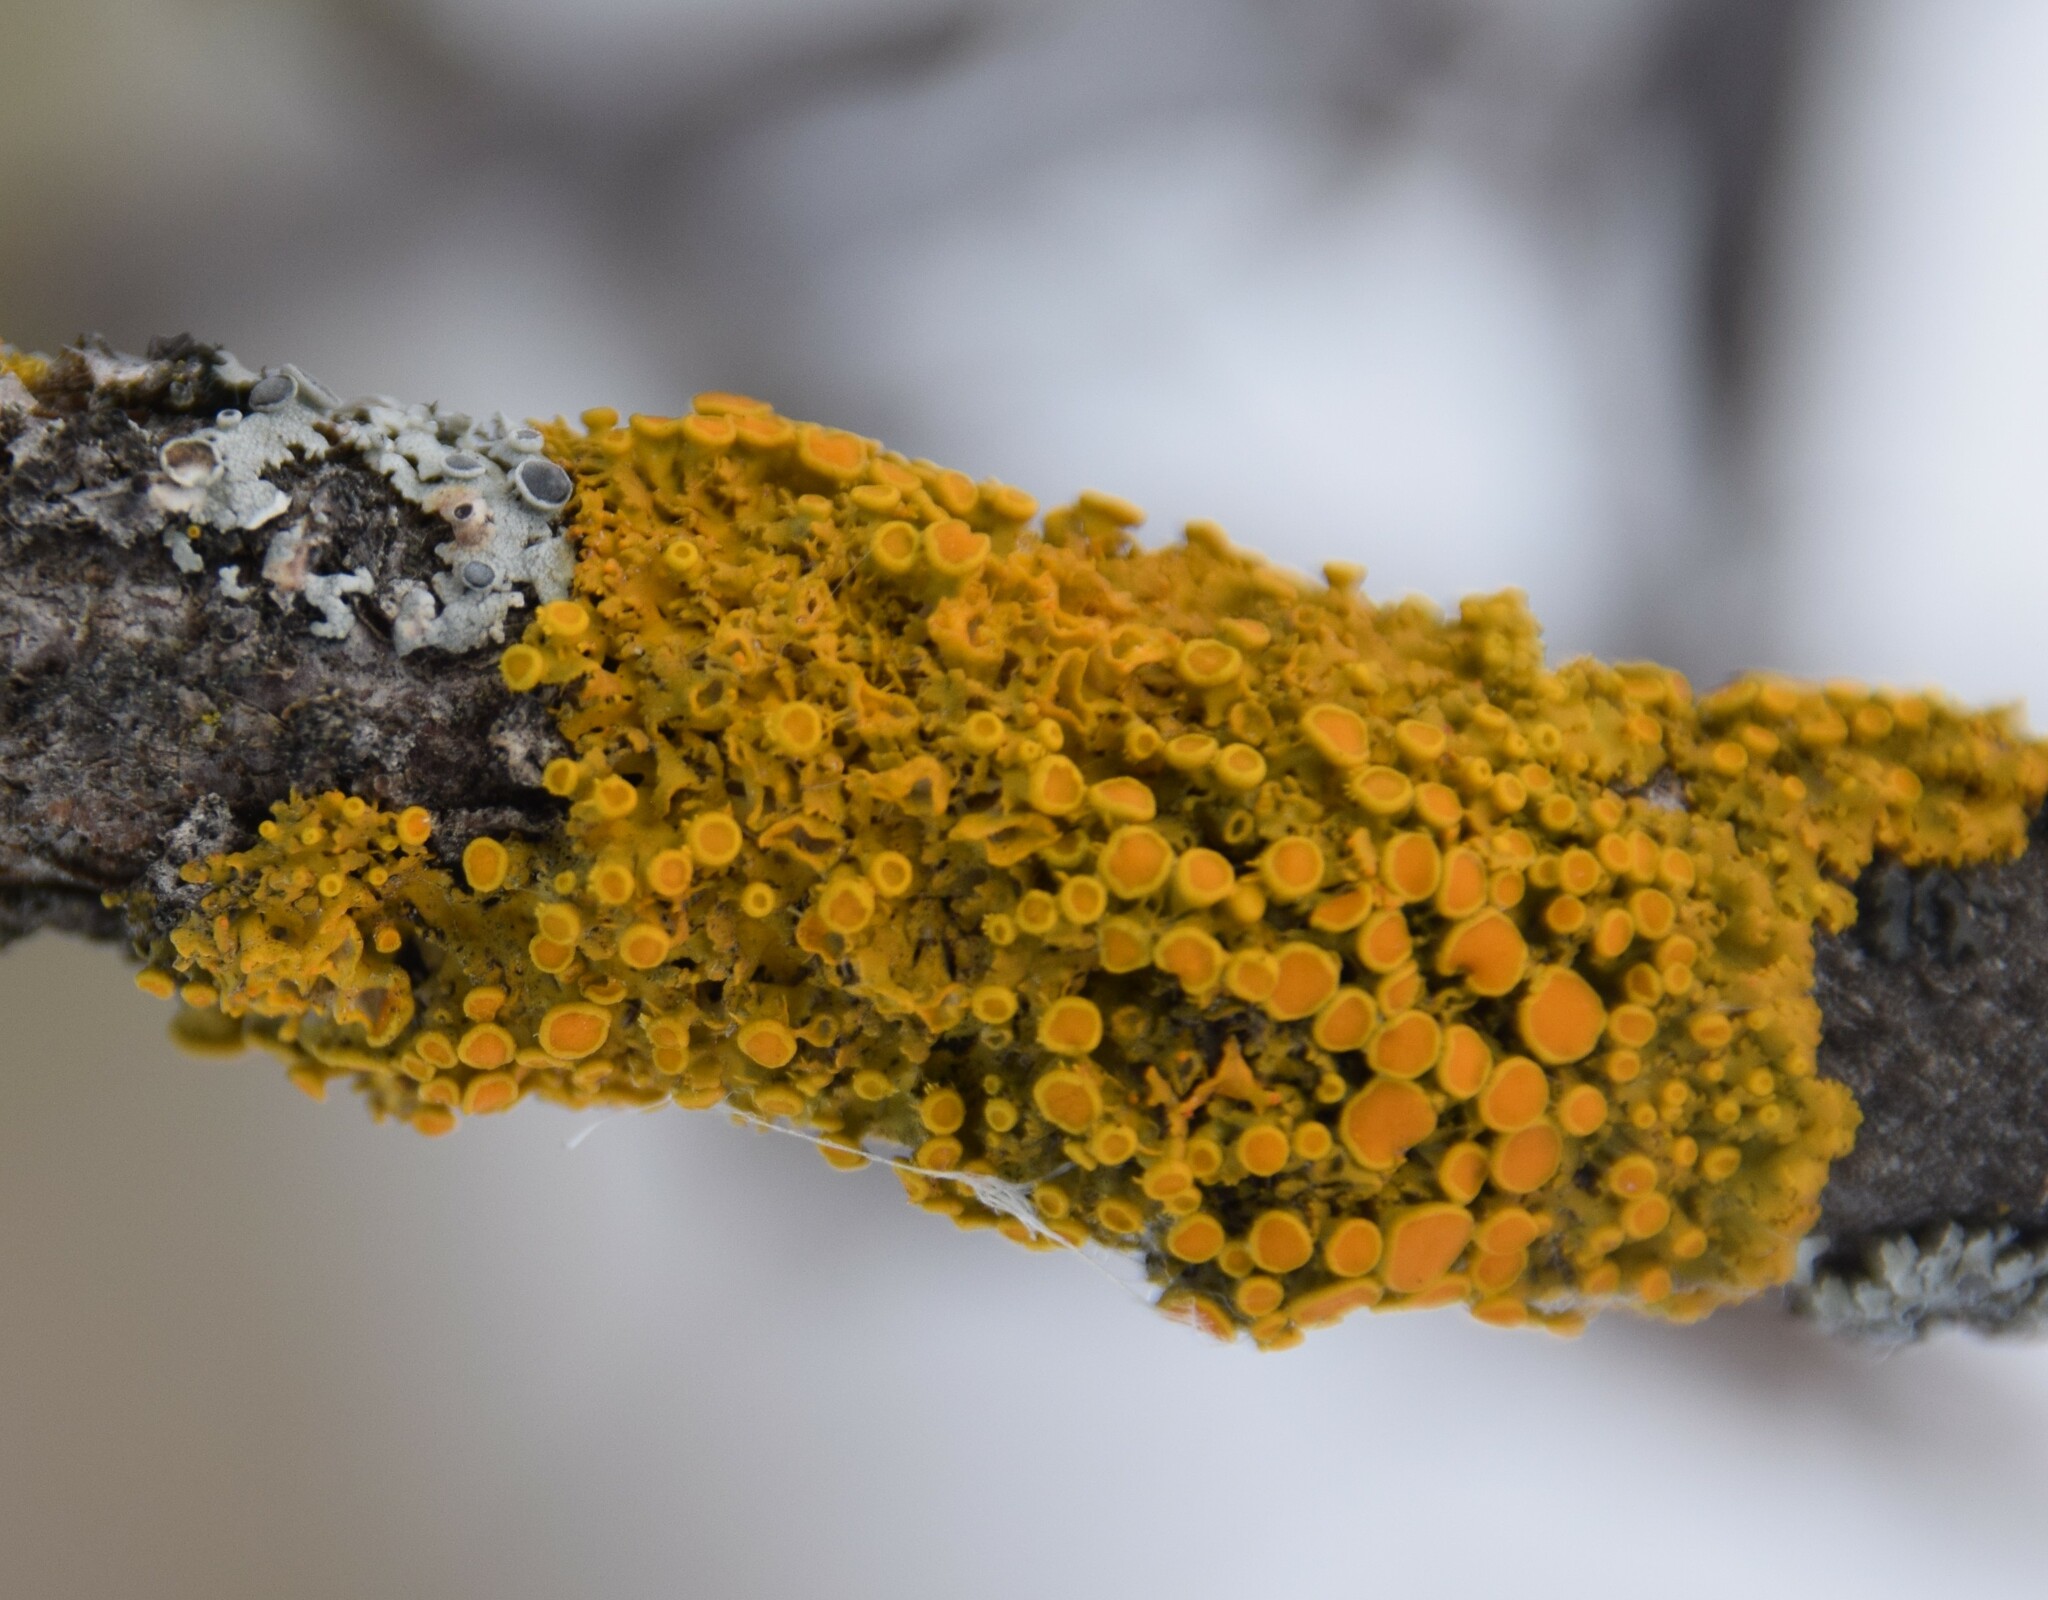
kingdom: Fungi
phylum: Ascomycota
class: Lecanoromycetes
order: Teloschistales
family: Teloschistaceae
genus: Gallowayella
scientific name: Gallowayella hasseana
